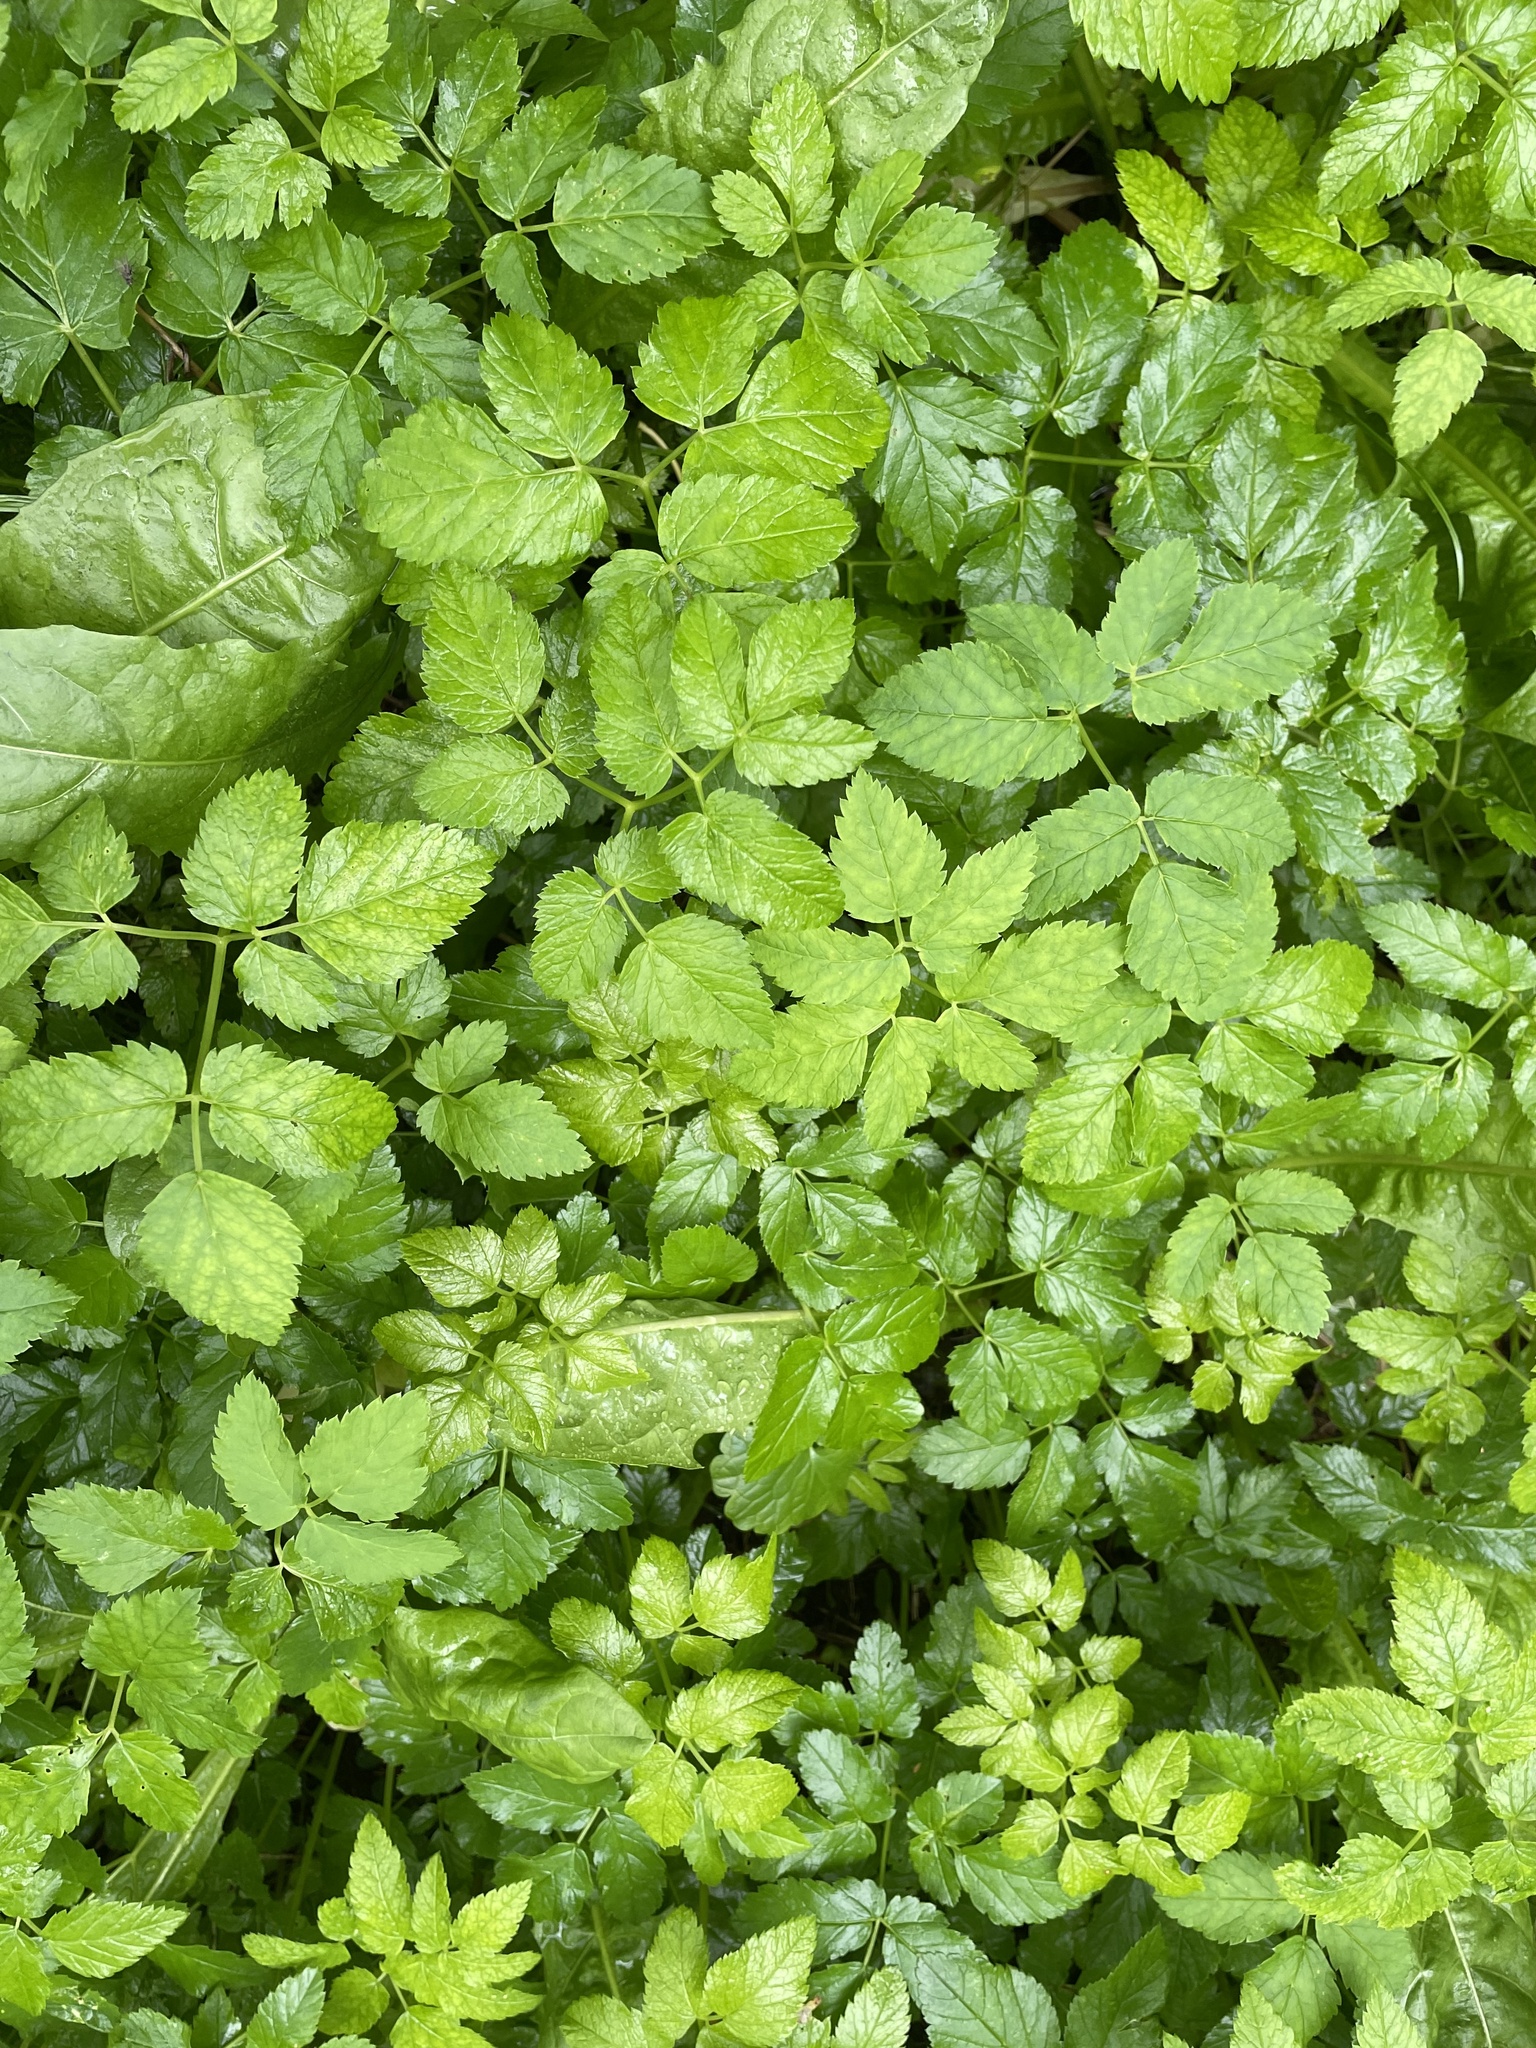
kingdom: Plantae
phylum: Tracheophyta
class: Magnoliopsida
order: Apiales
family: Apiaceae
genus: Aegopodium
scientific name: Aegopodium podagraria
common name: Ground-elder
